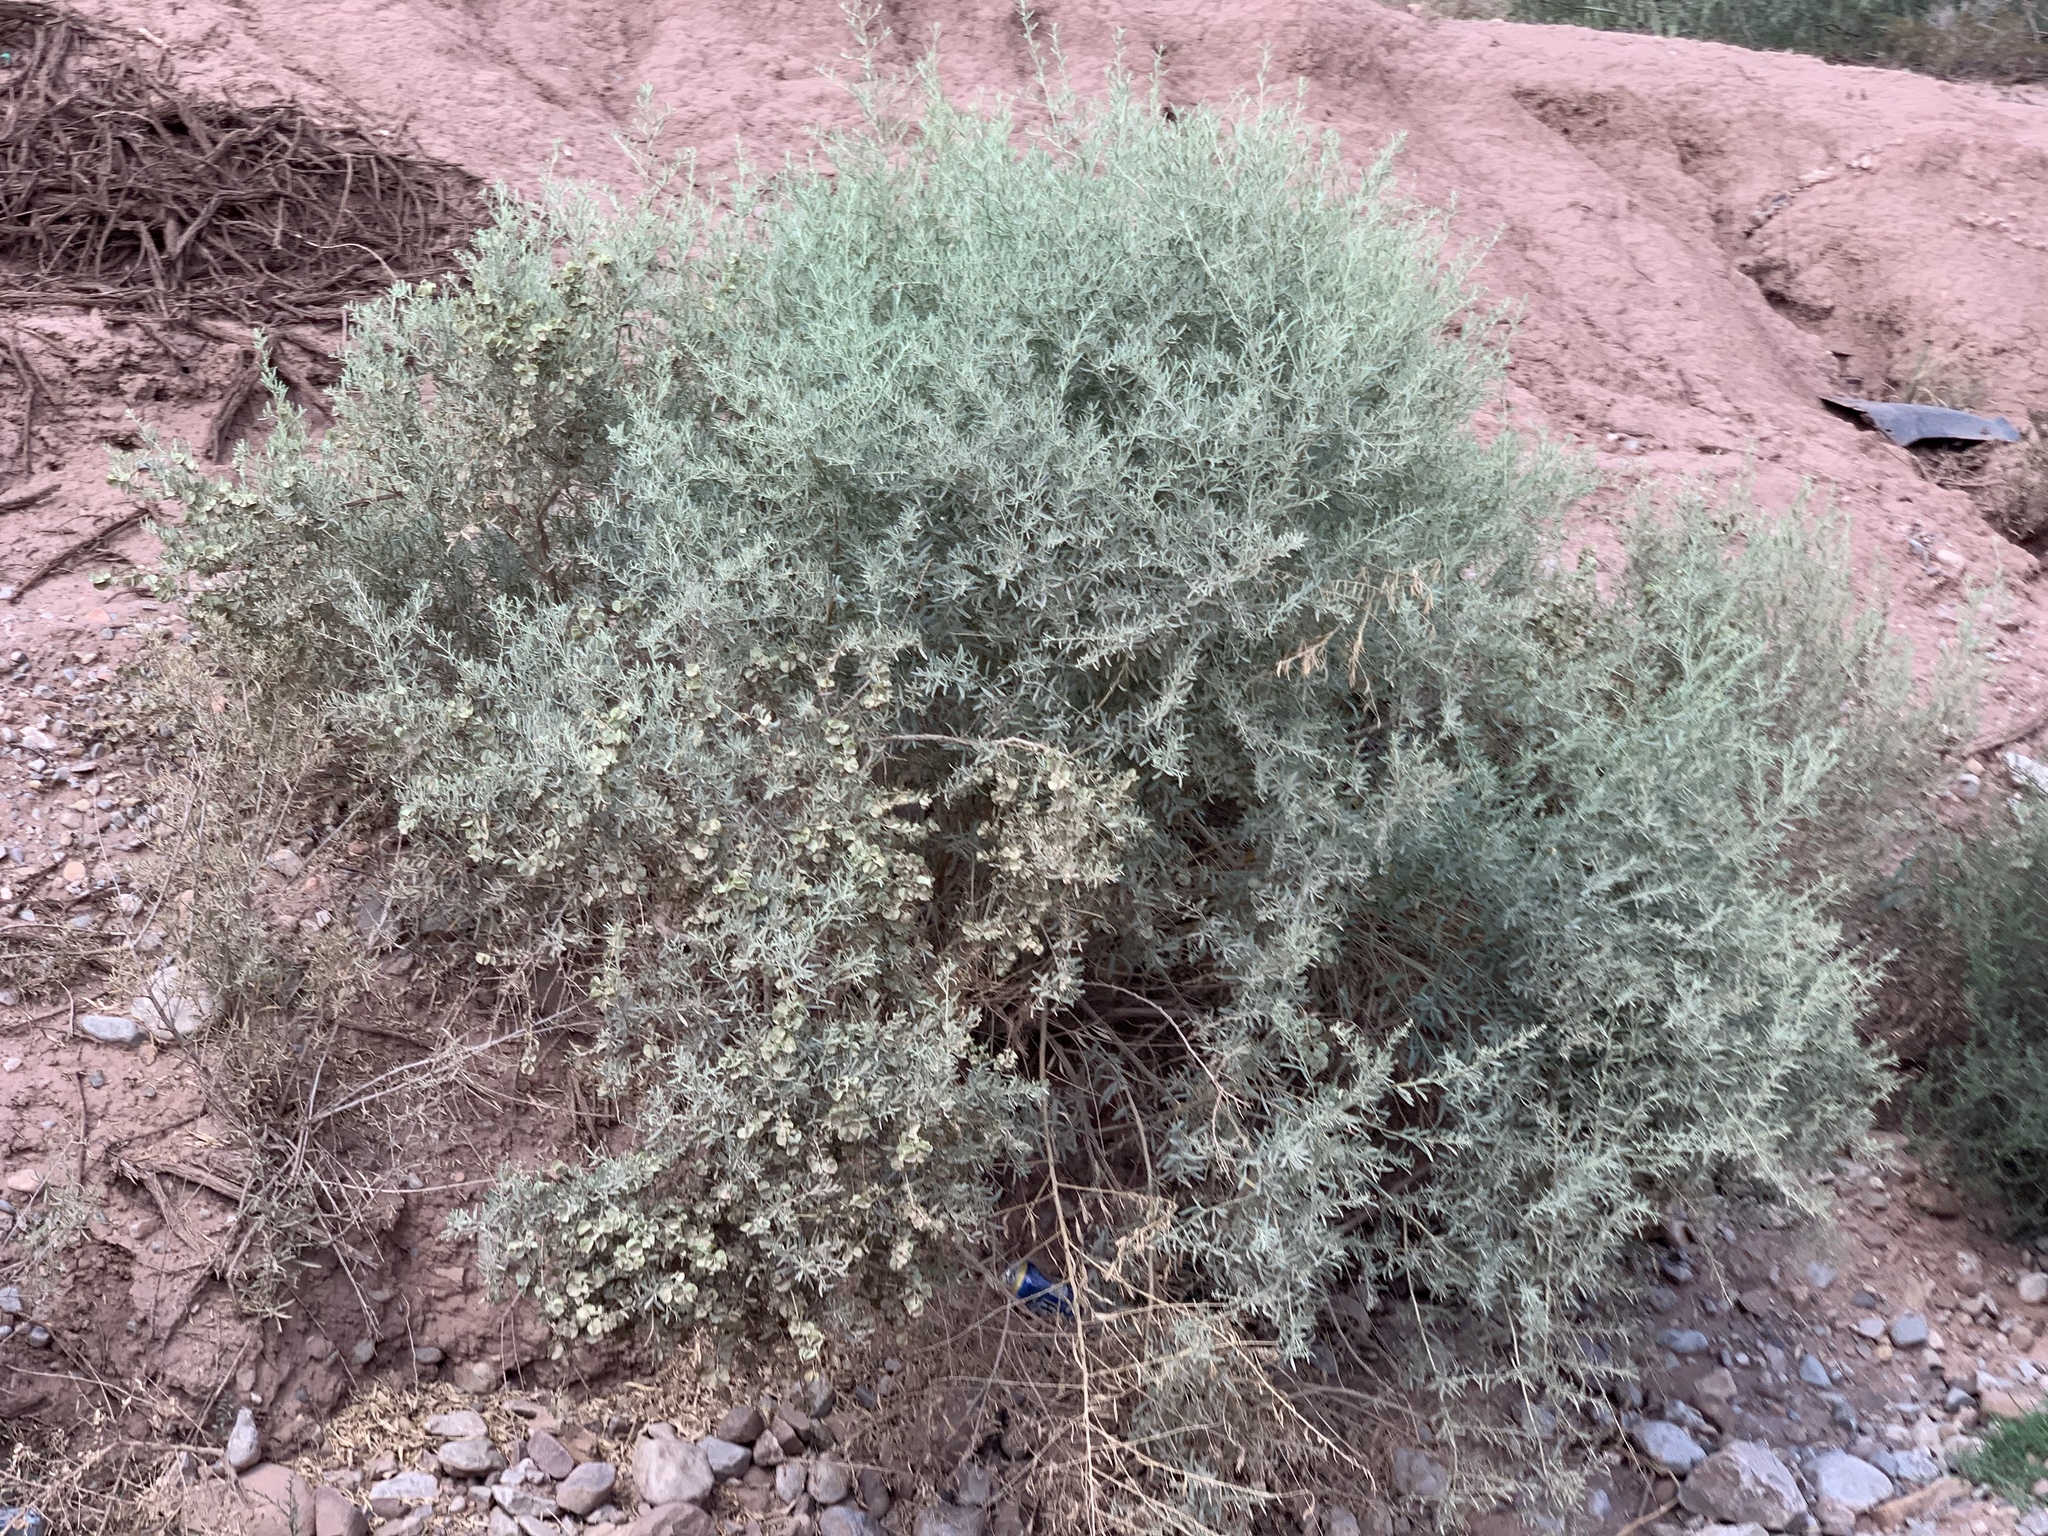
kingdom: Plantae
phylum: Tracheophyta
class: Magnoliopsida
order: Caryophyllales
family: Amaranthaceae
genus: Atriplex
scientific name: Atriplex canescens
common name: Four-wing saltbush
